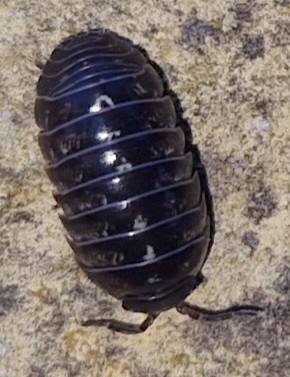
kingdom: Animalia
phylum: Arthropoda
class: Malacostraca
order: Isopoda
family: Armadillidiidae
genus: Armadillidium
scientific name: Armadillidium vulgare
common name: Common pill woodlouse
